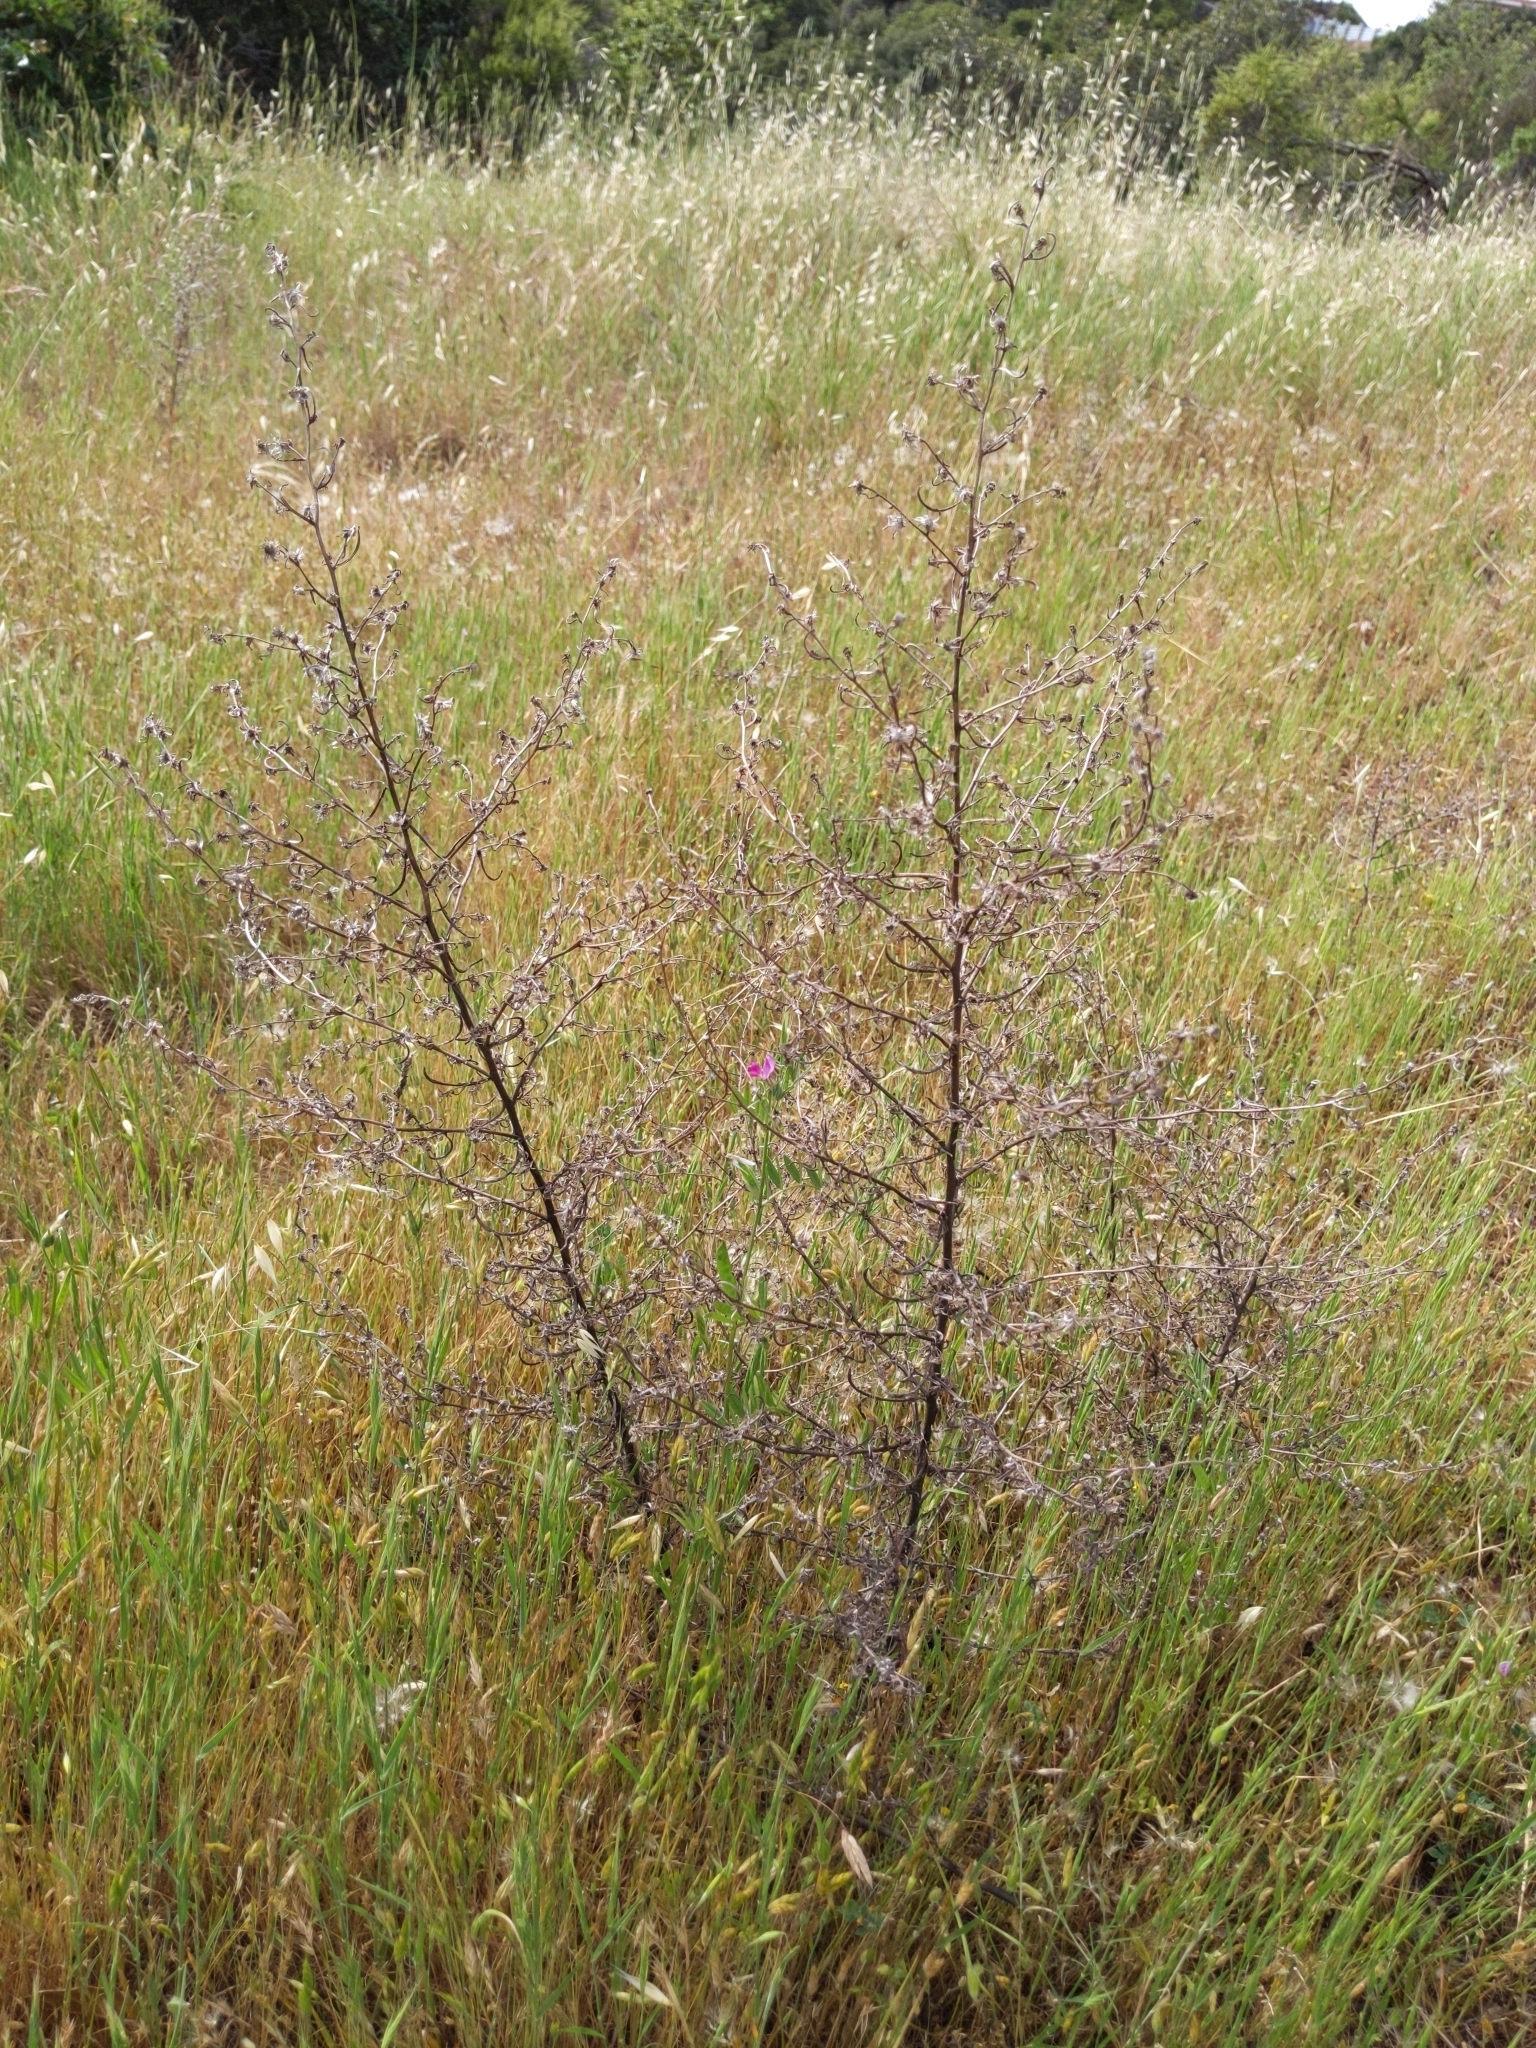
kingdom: Plantae
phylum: Tracheophyta
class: Magnoliopsida
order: Asterales
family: Asteraceae
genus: Dittrichia
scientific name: Dittrichia graveolens
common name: Stinking fleabane
